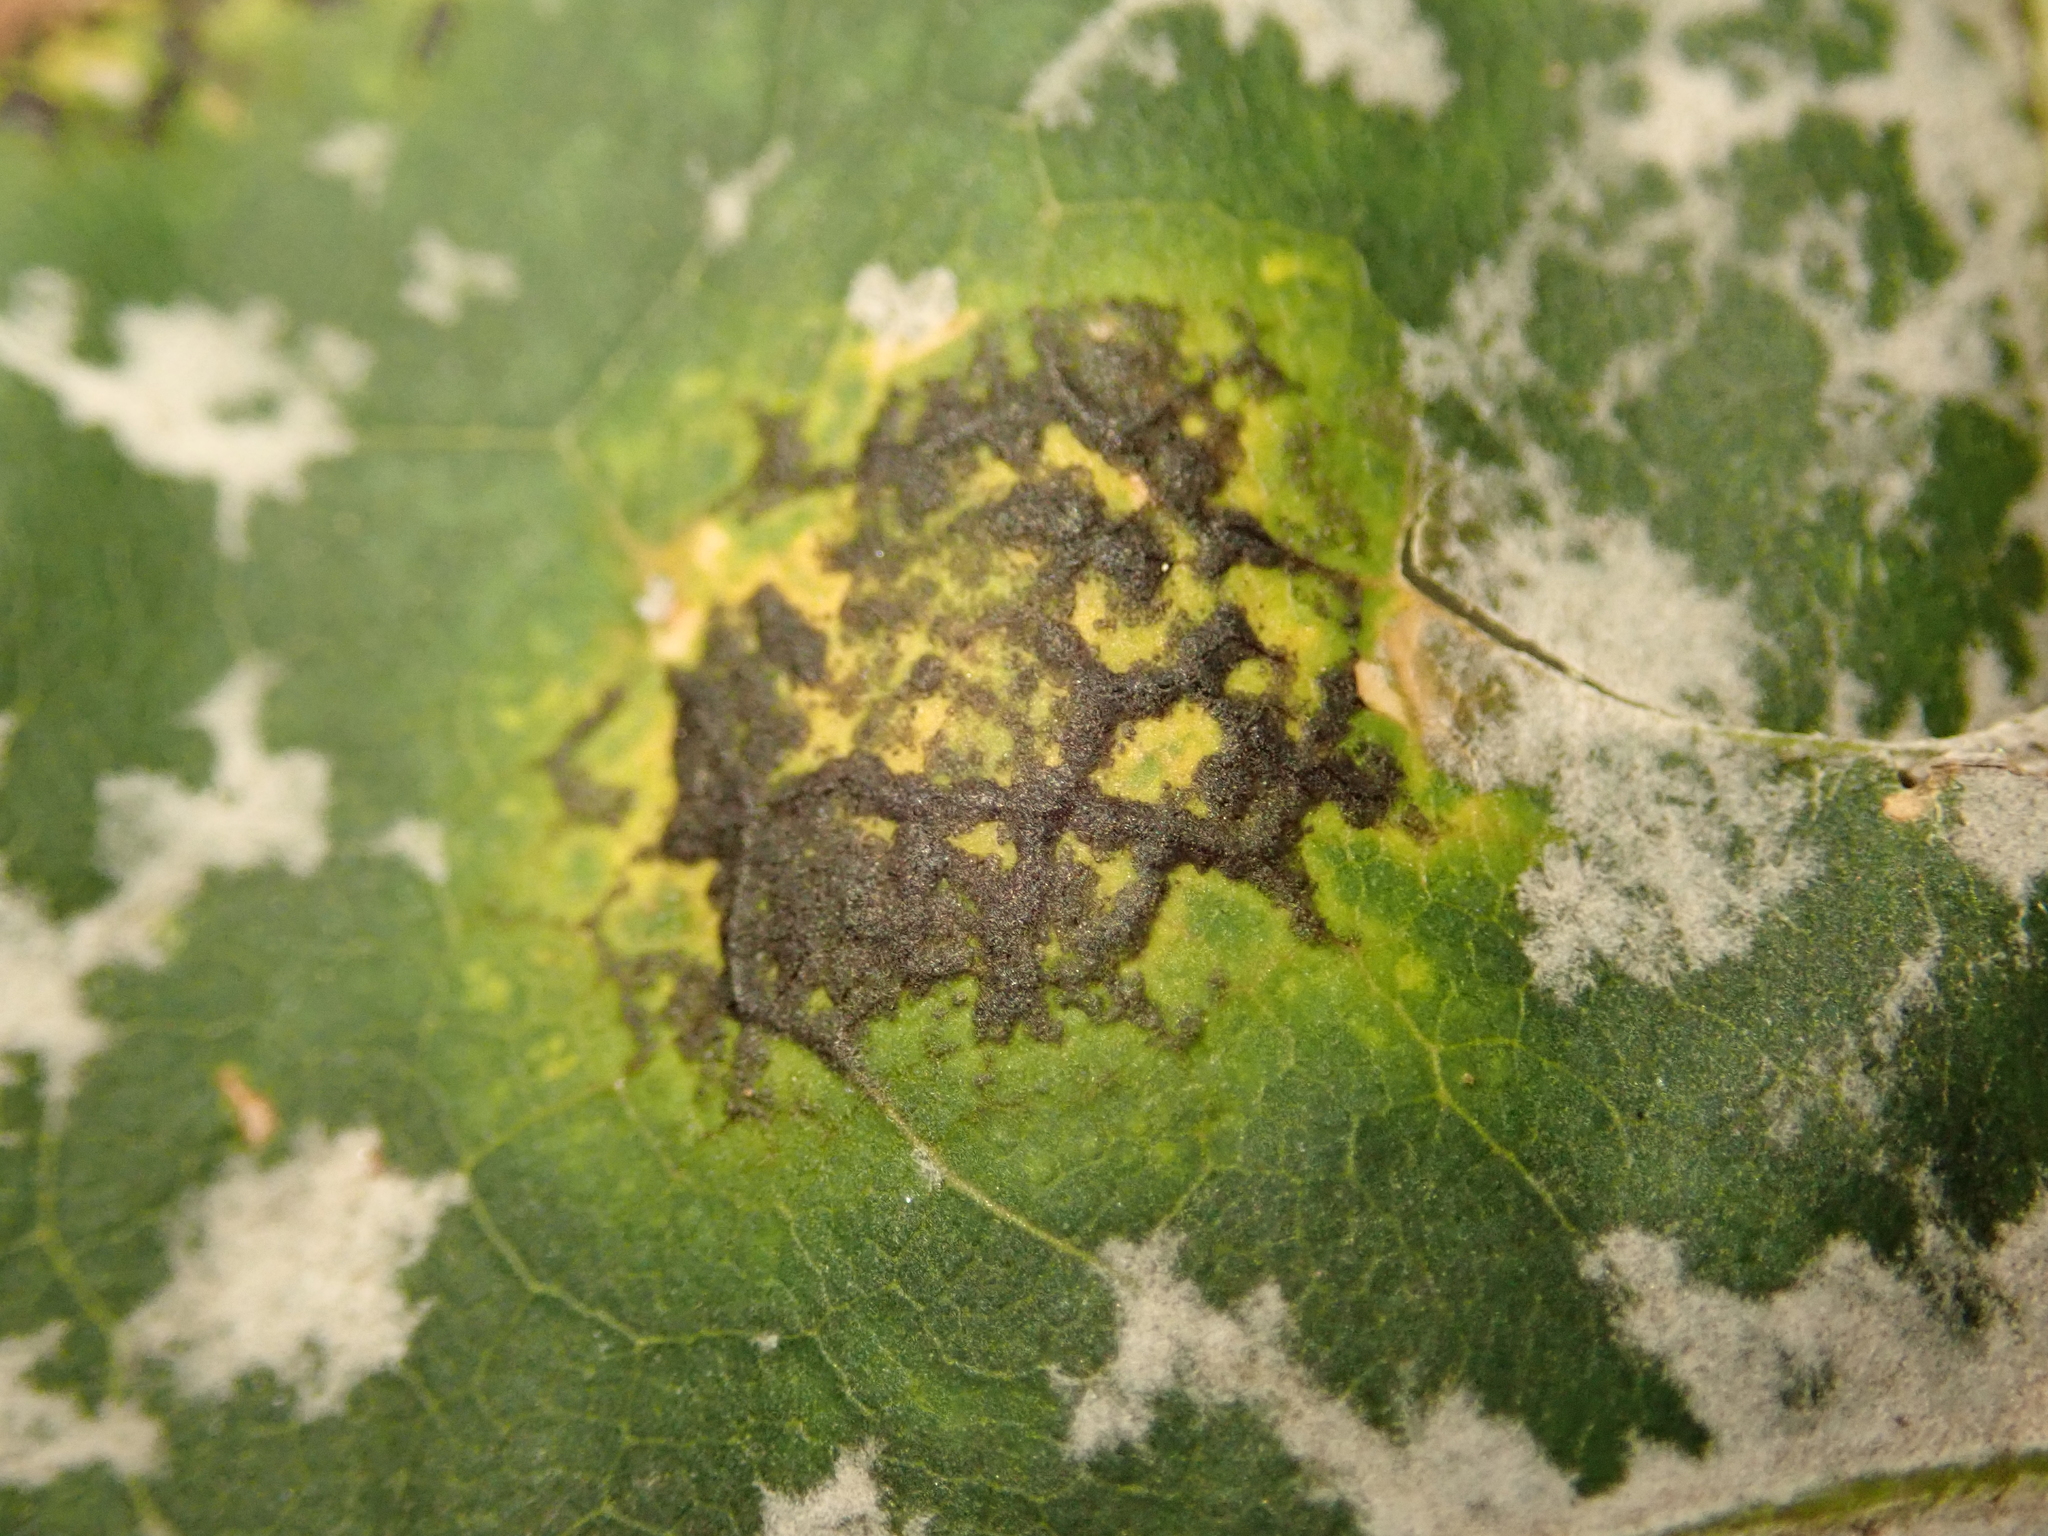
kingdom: Fungi
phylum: Ascomycota
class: Leotiomycetes
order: Rhytismatales
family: Rhytismataceae
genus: Rhytisma
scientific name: Rhytisma acerinum
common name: European tar spot
